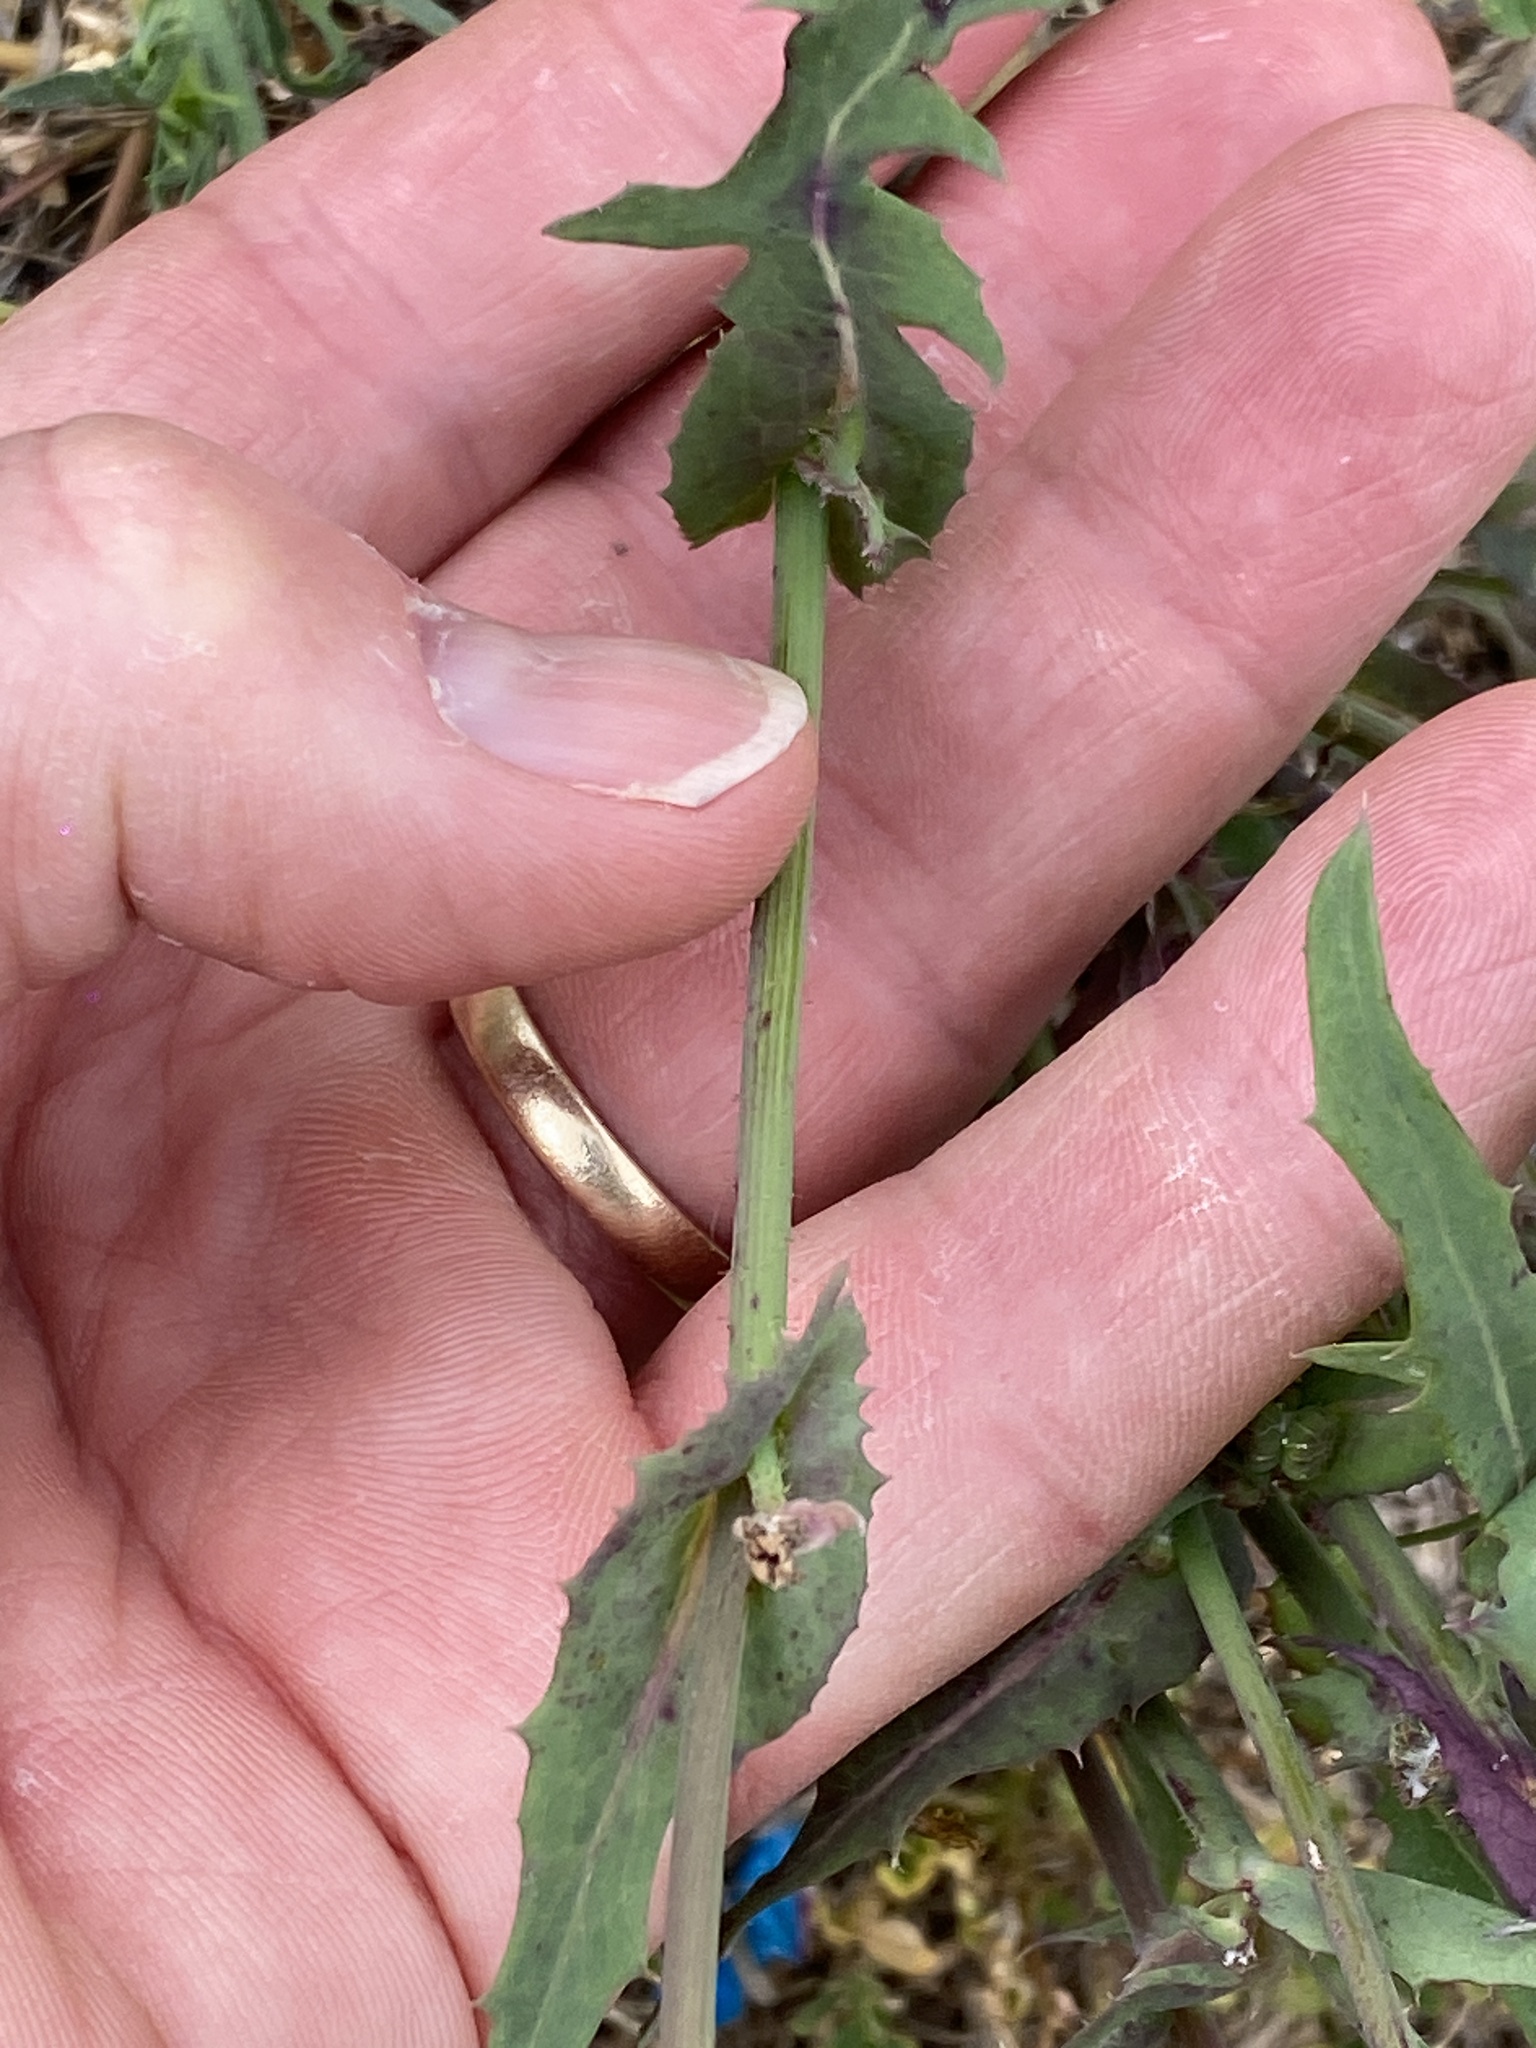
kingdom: Plantae
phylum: Tracheophyta
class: Magnoliopsida
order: Asterales
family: Asteraceae
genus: Sonchus
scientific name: Sonchus oleraceus
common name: Common sowthistle
